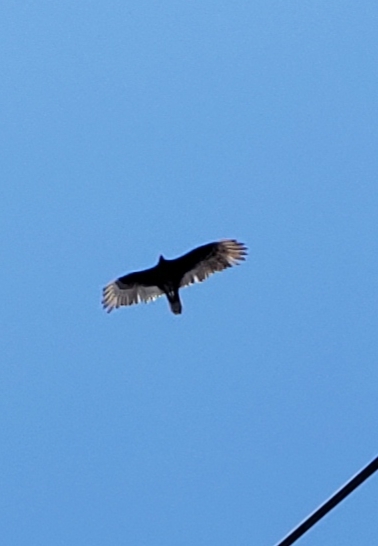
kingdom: Animalia
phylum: Chordata
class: Aves
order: Accipitriformes
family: Cathartidae
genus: Cathartes
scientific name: Cathartes aura
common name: Turkey vulture
